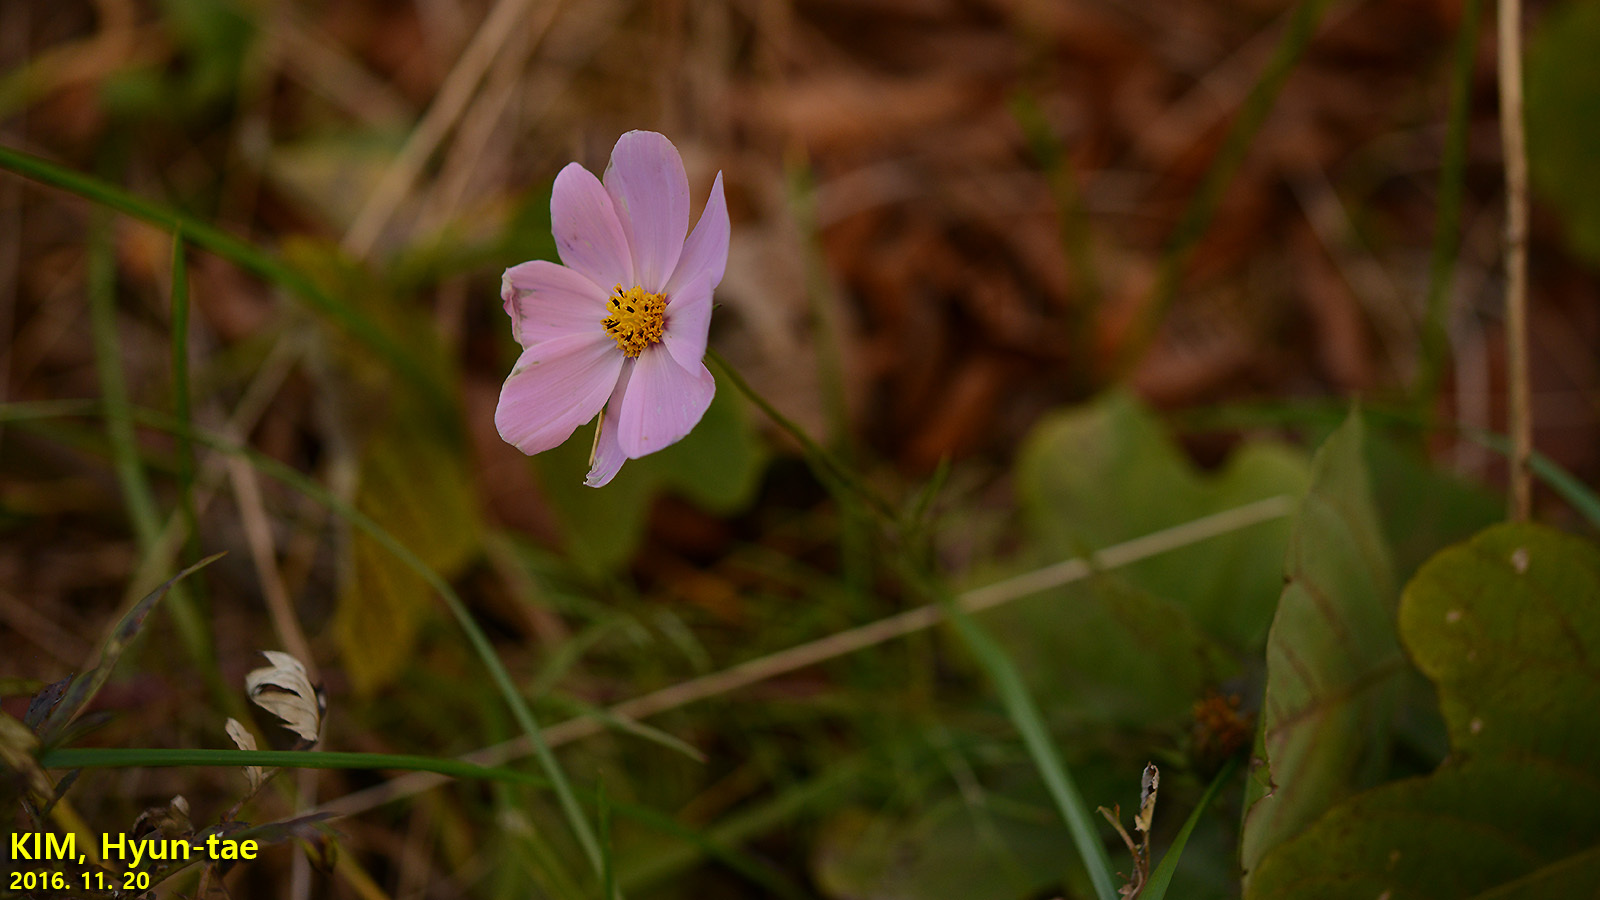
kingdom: Plantae
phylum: Tracheophyta
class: Magnoliopsida
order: Asterales
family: Asteraceae
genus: Cosmos
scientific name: Cosmos bipinnatus
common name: Garden cosmos
